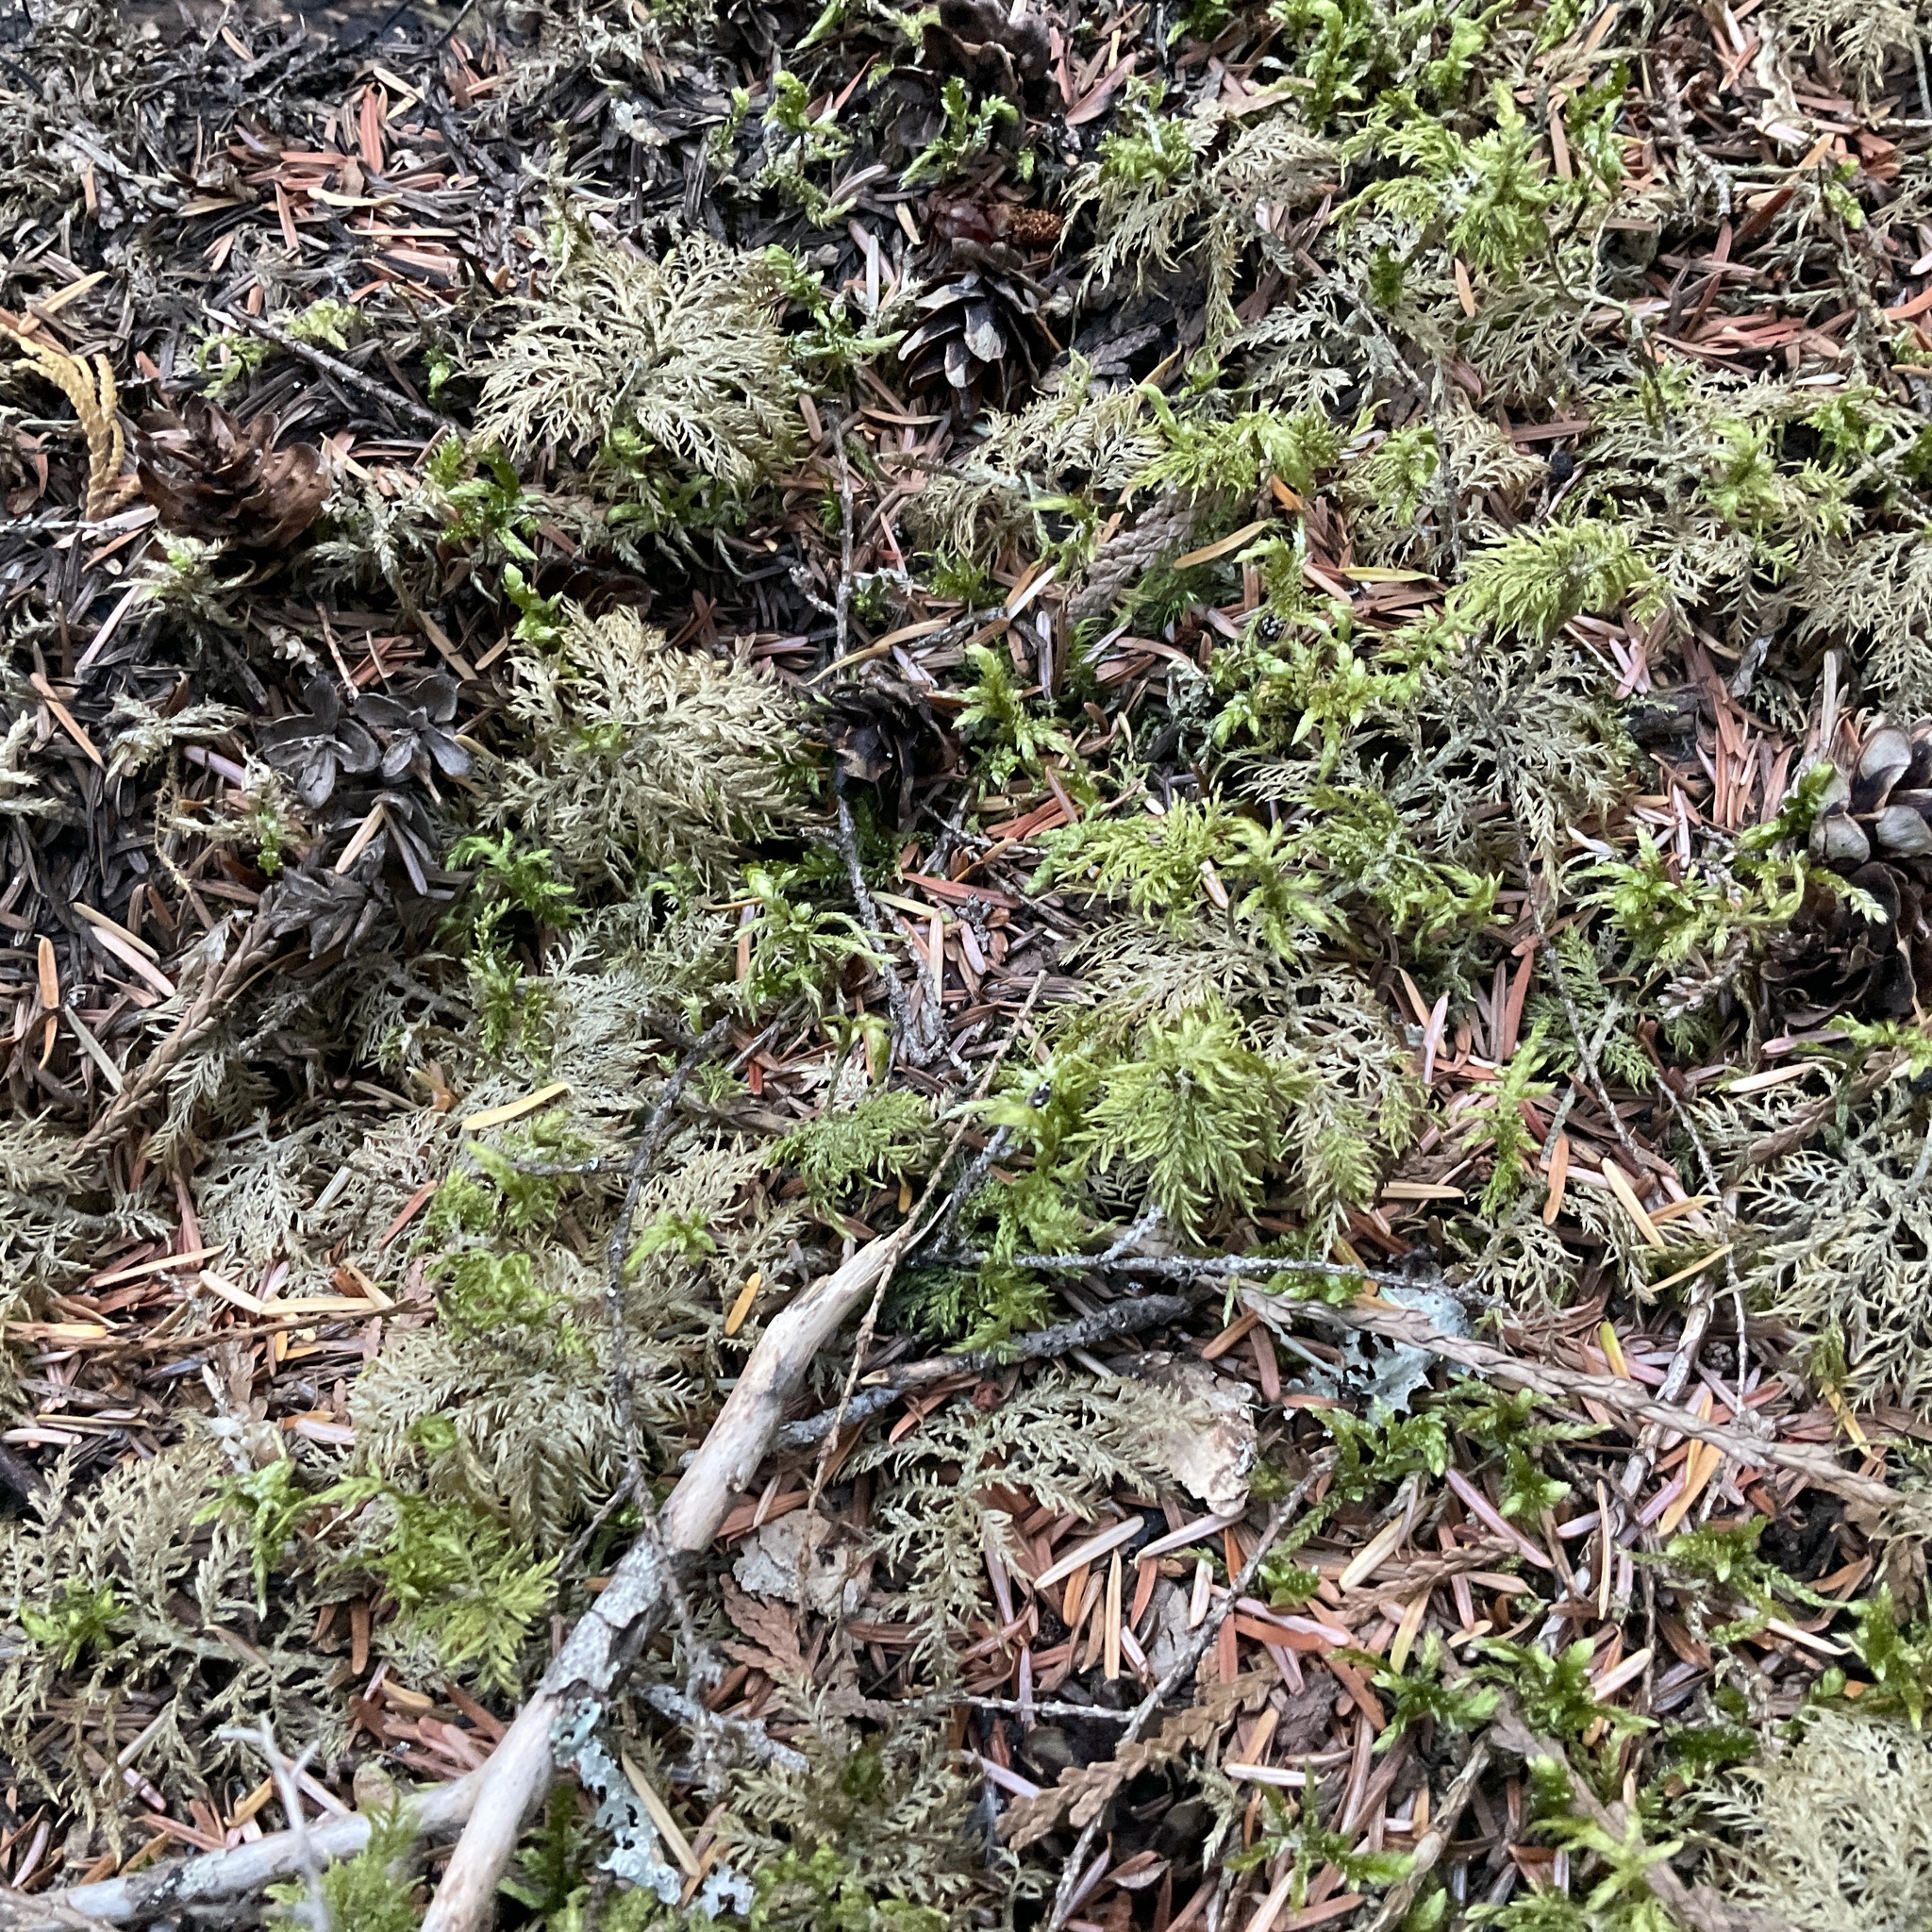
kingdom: Plantae
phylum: Bryophyta
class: Bryopsida
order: Hypnales
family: Hylocomiaceae
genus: Hylocomium
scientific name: Hylocomium splendens
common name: Stairstep moss
